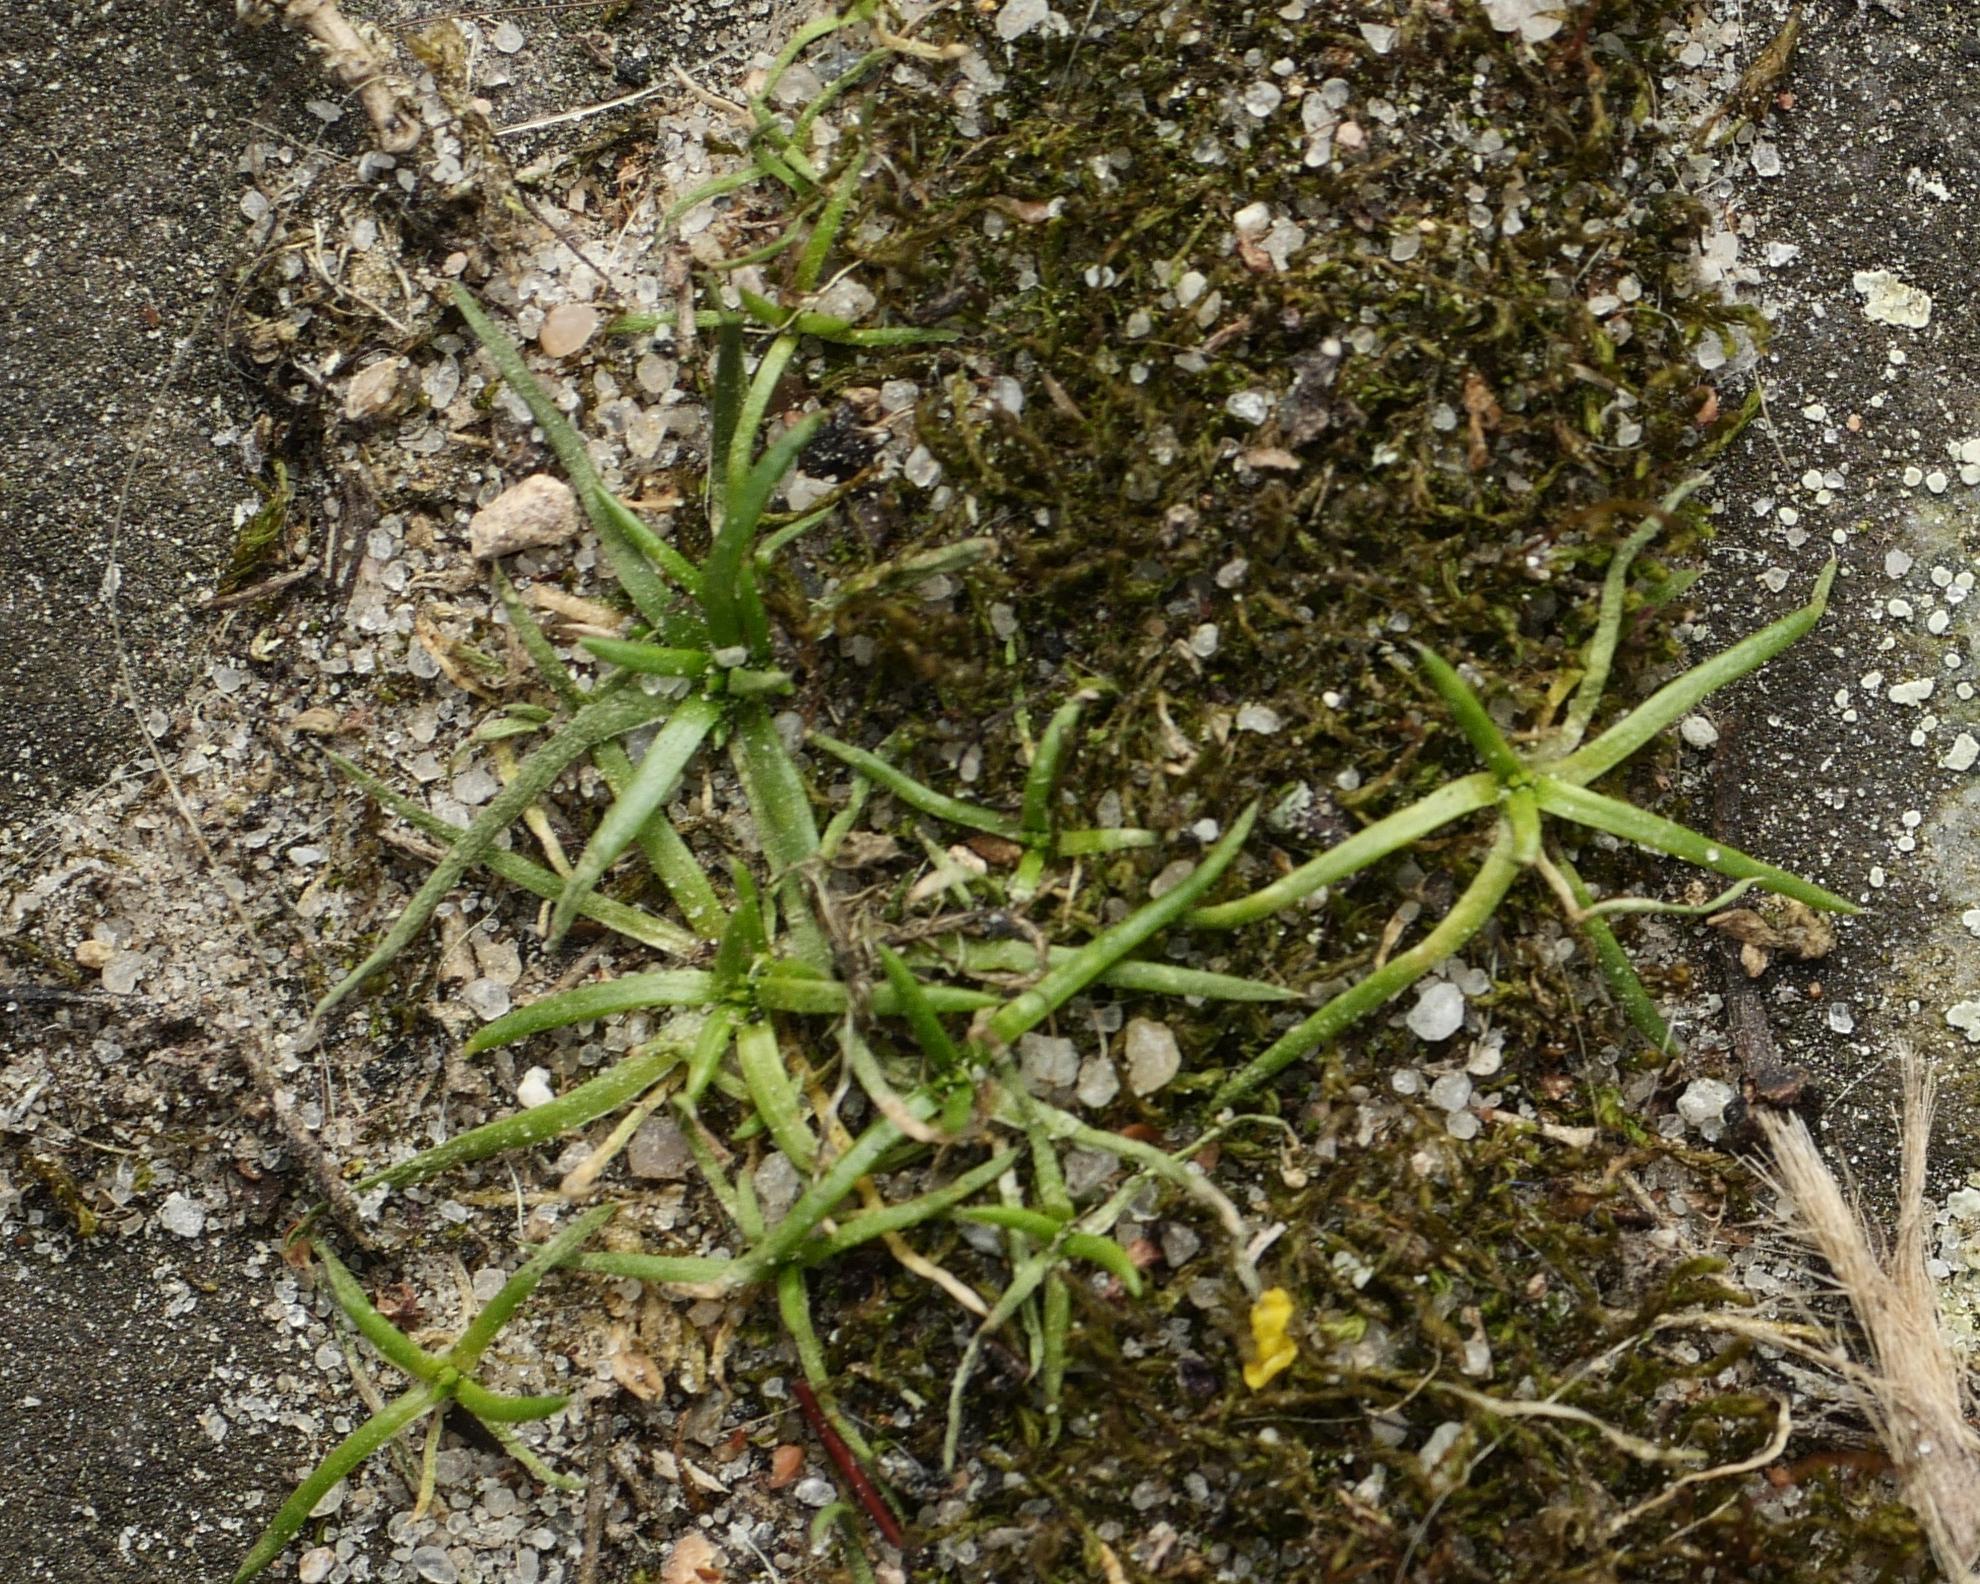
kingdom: Plantae
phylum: Tracheophyta
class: Magnoliopsida
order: Caryophyllales
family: Caryophyllaceae
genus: Sagina
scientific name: Sagina procumbens
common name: Procumbent pearlwort
